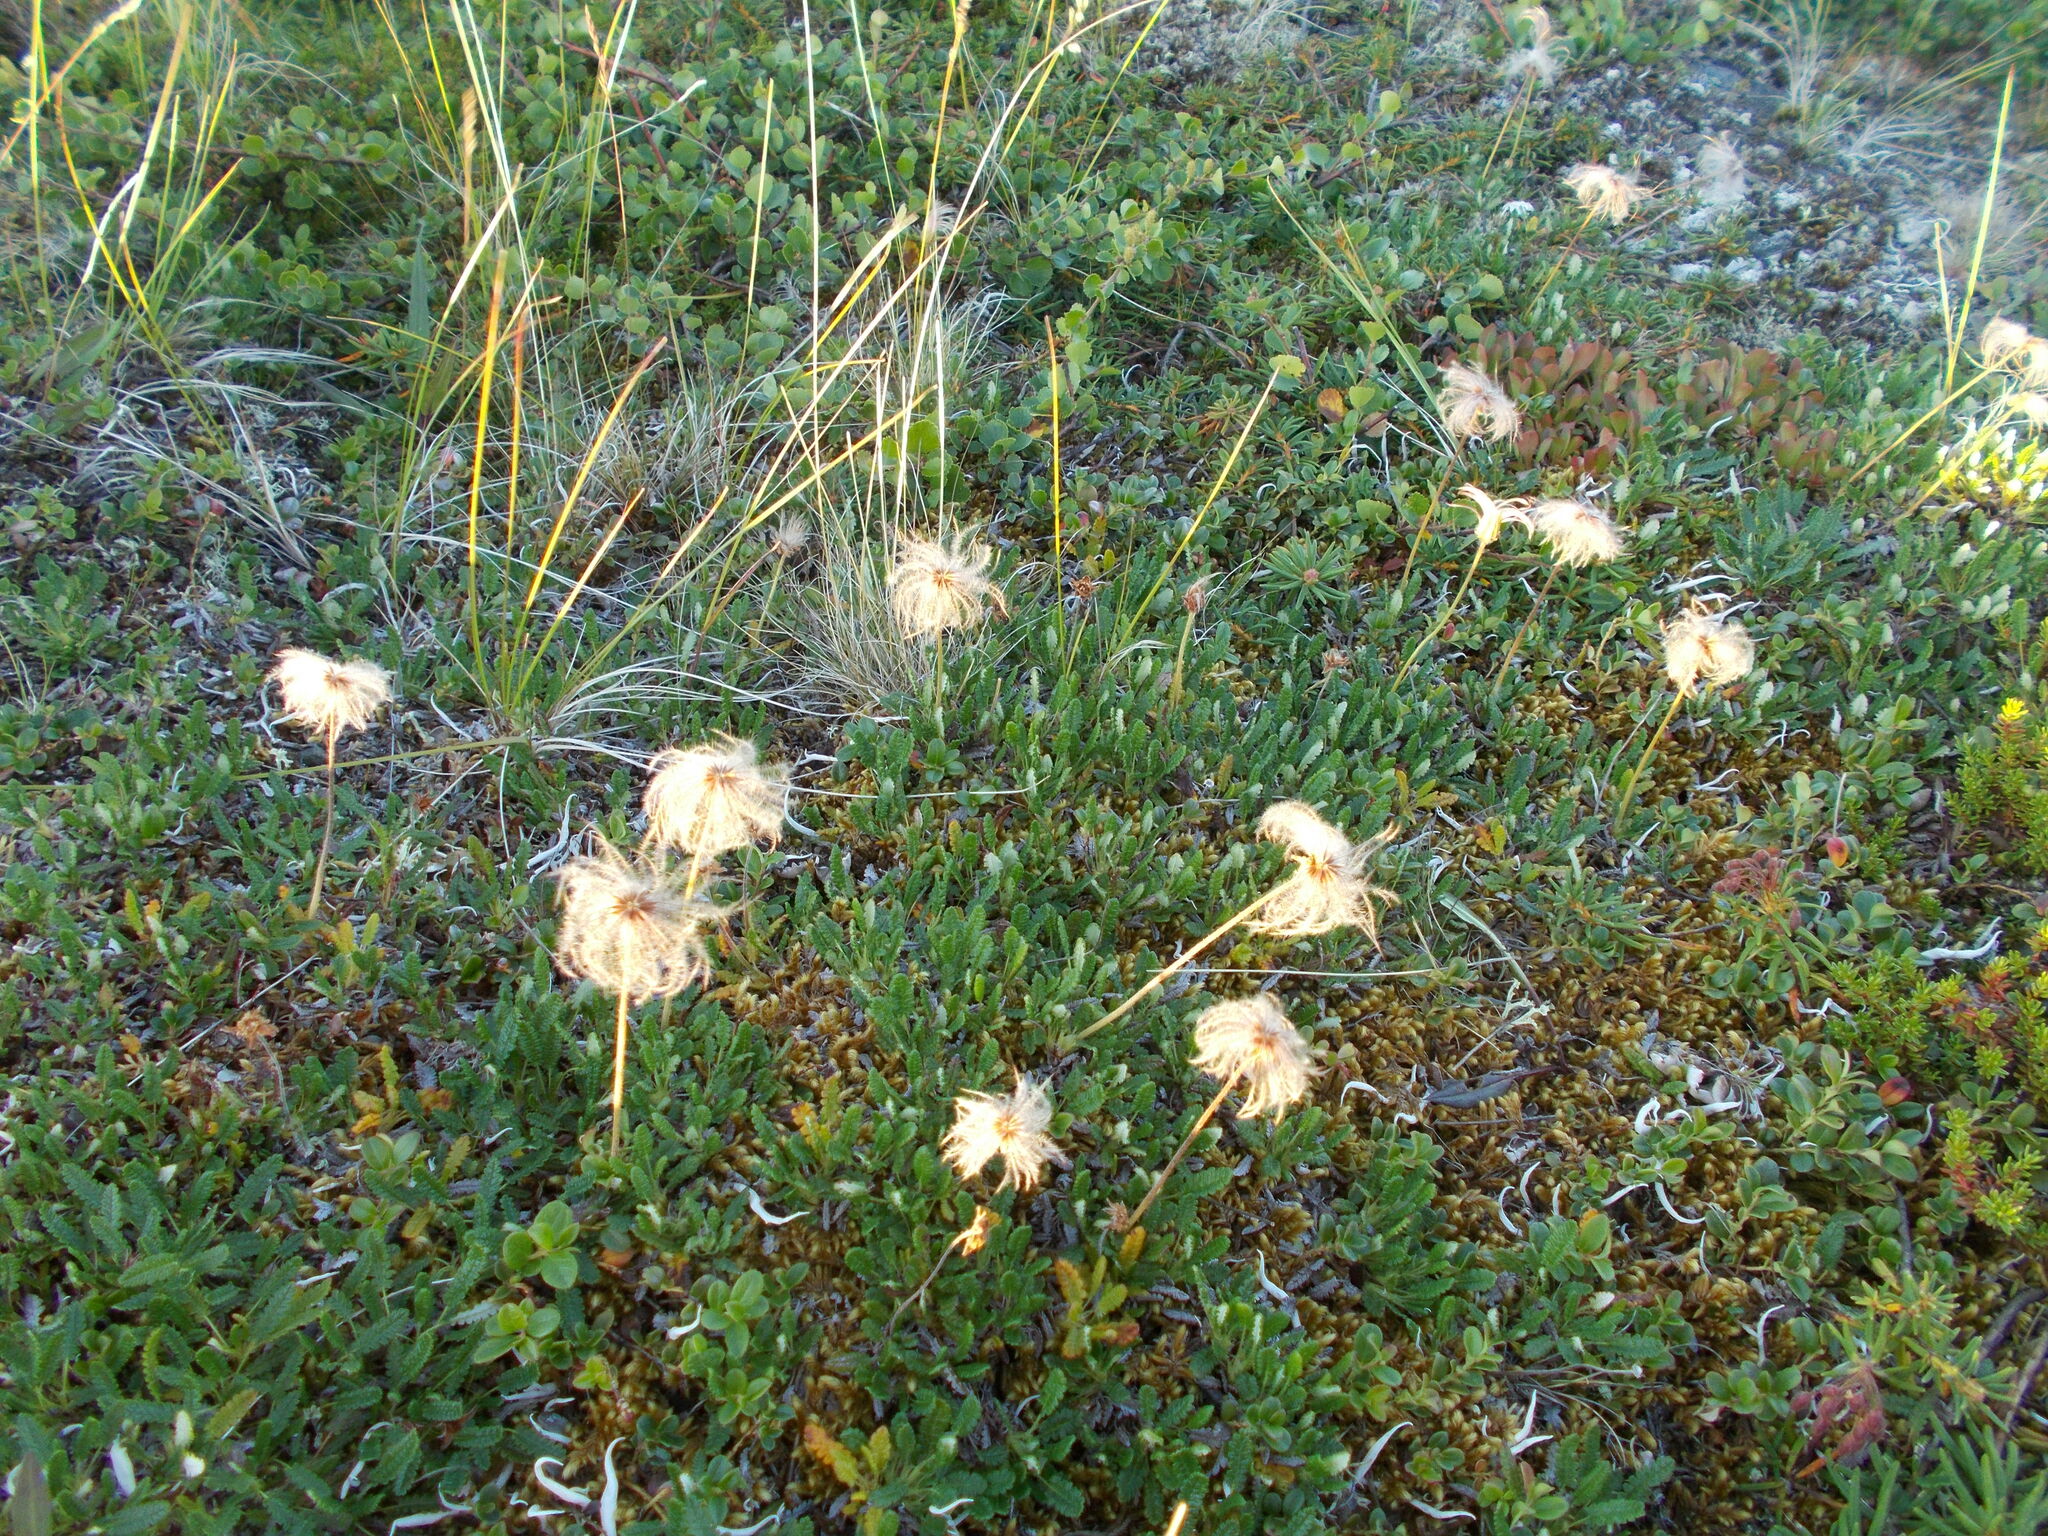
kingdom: Plantae
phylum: Tracheophyta
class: Magnoliopsida
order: Rosales
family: Rosaceae
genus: Dryas
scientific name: Dryas octopetala
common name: Eight-petal mountain-avens
